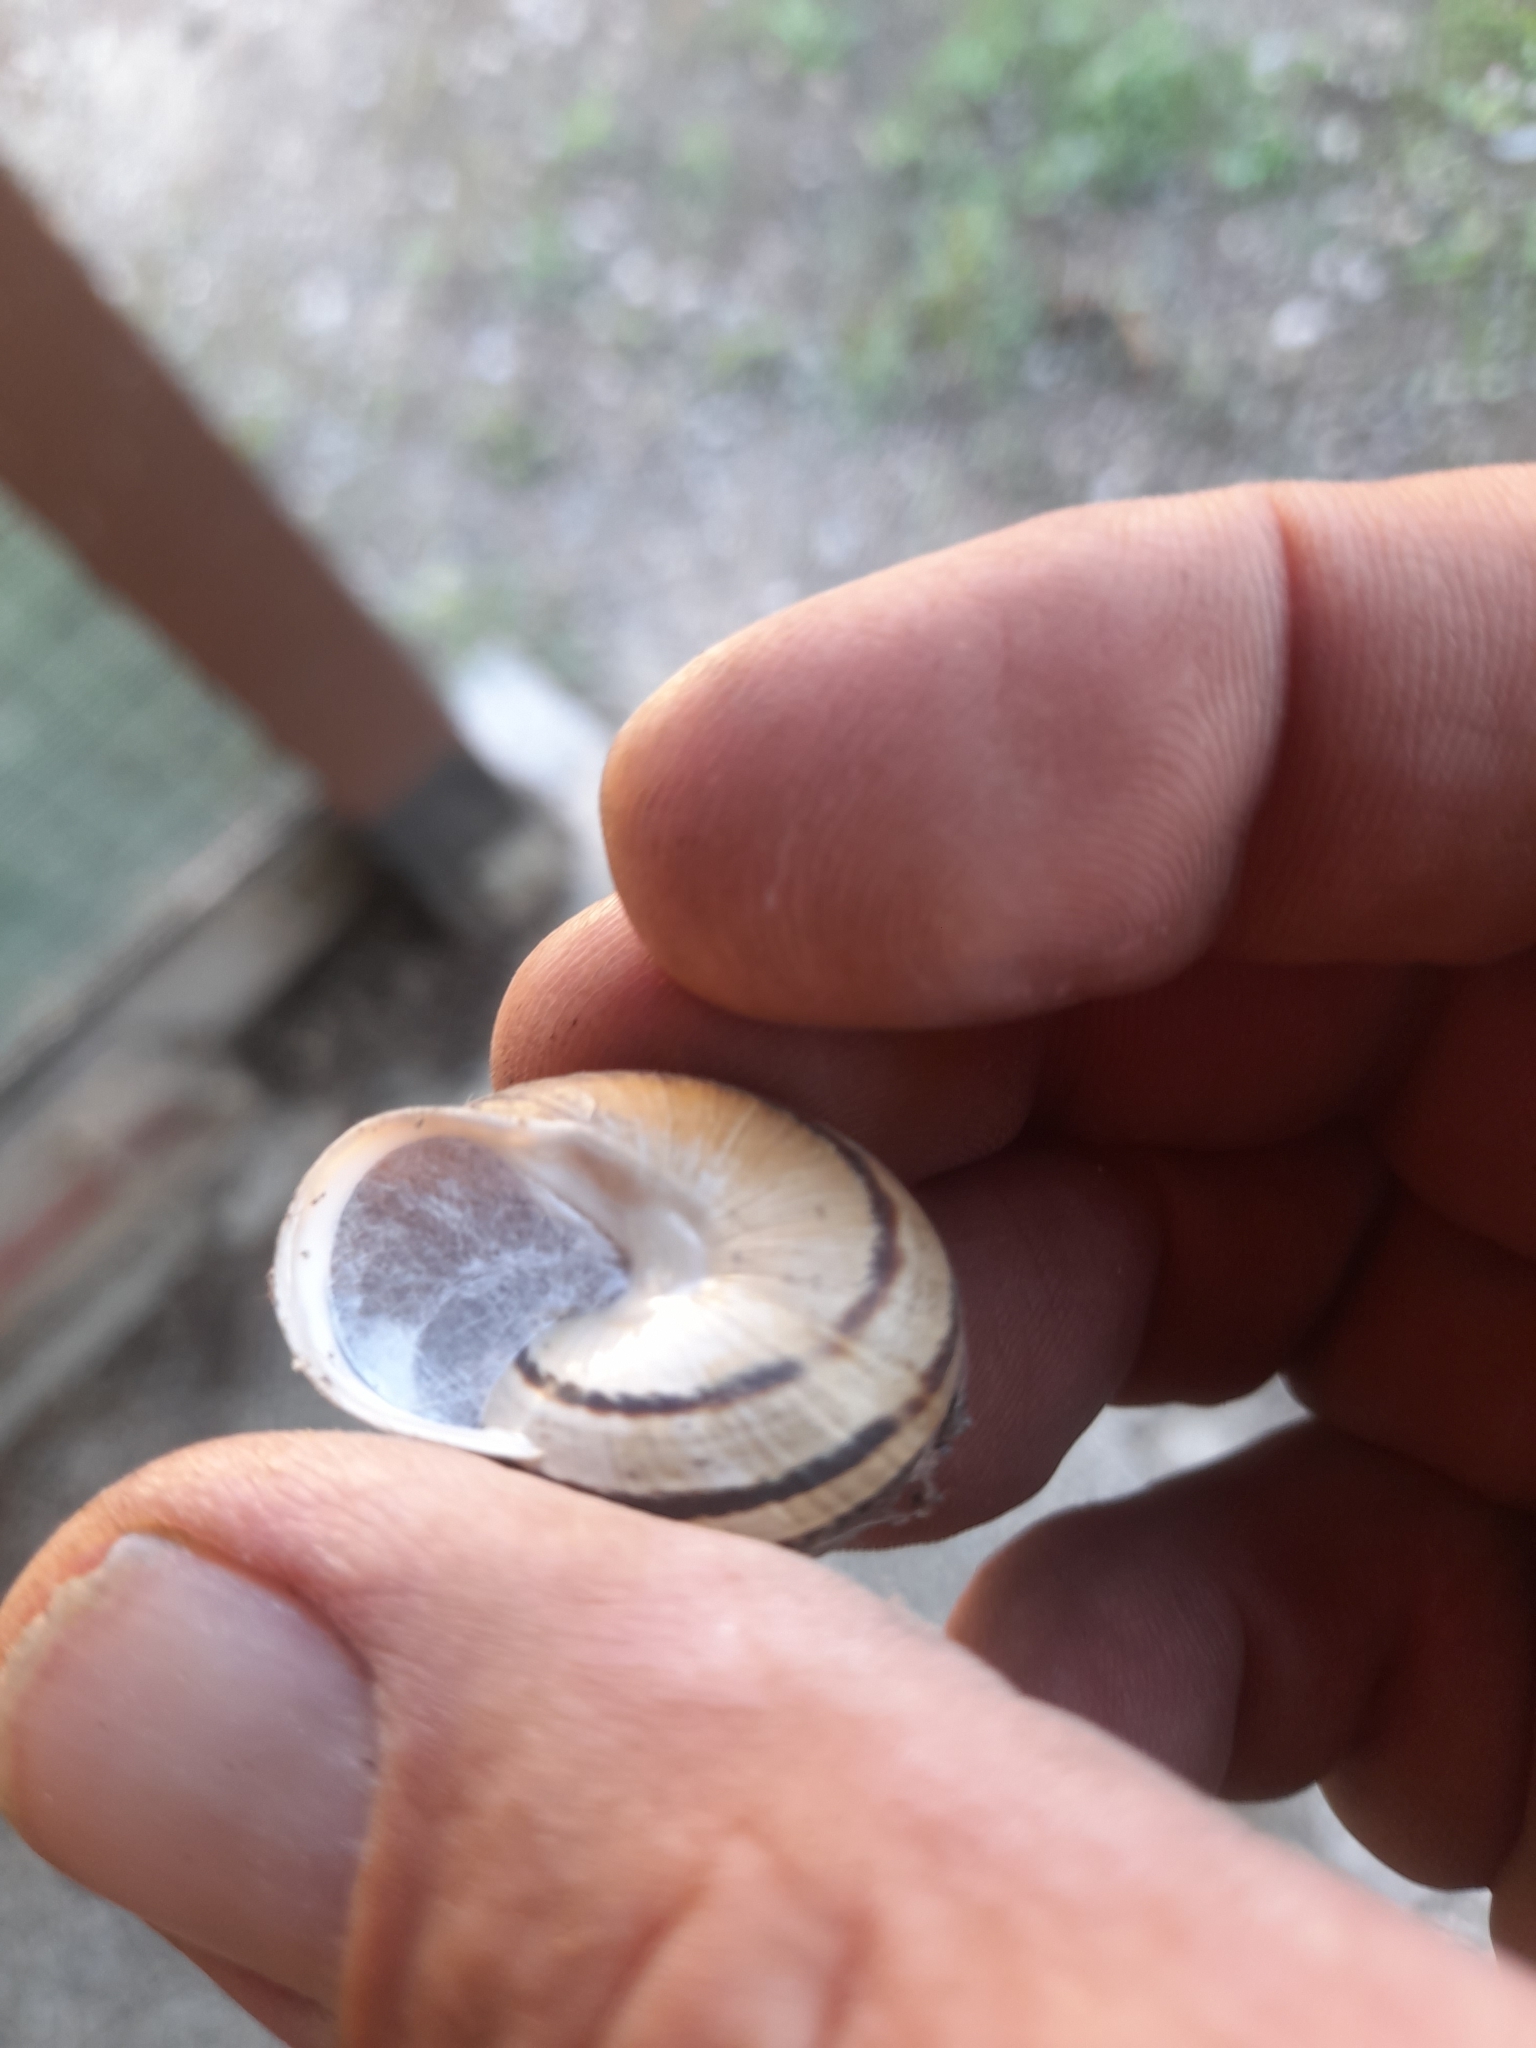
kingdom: Animalia
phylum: Mollusca
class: Gastropoda
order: Stylommatophora
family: Helicidae
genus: Eobania
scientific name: Eobania vermiculata
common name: Chocolateband snail
